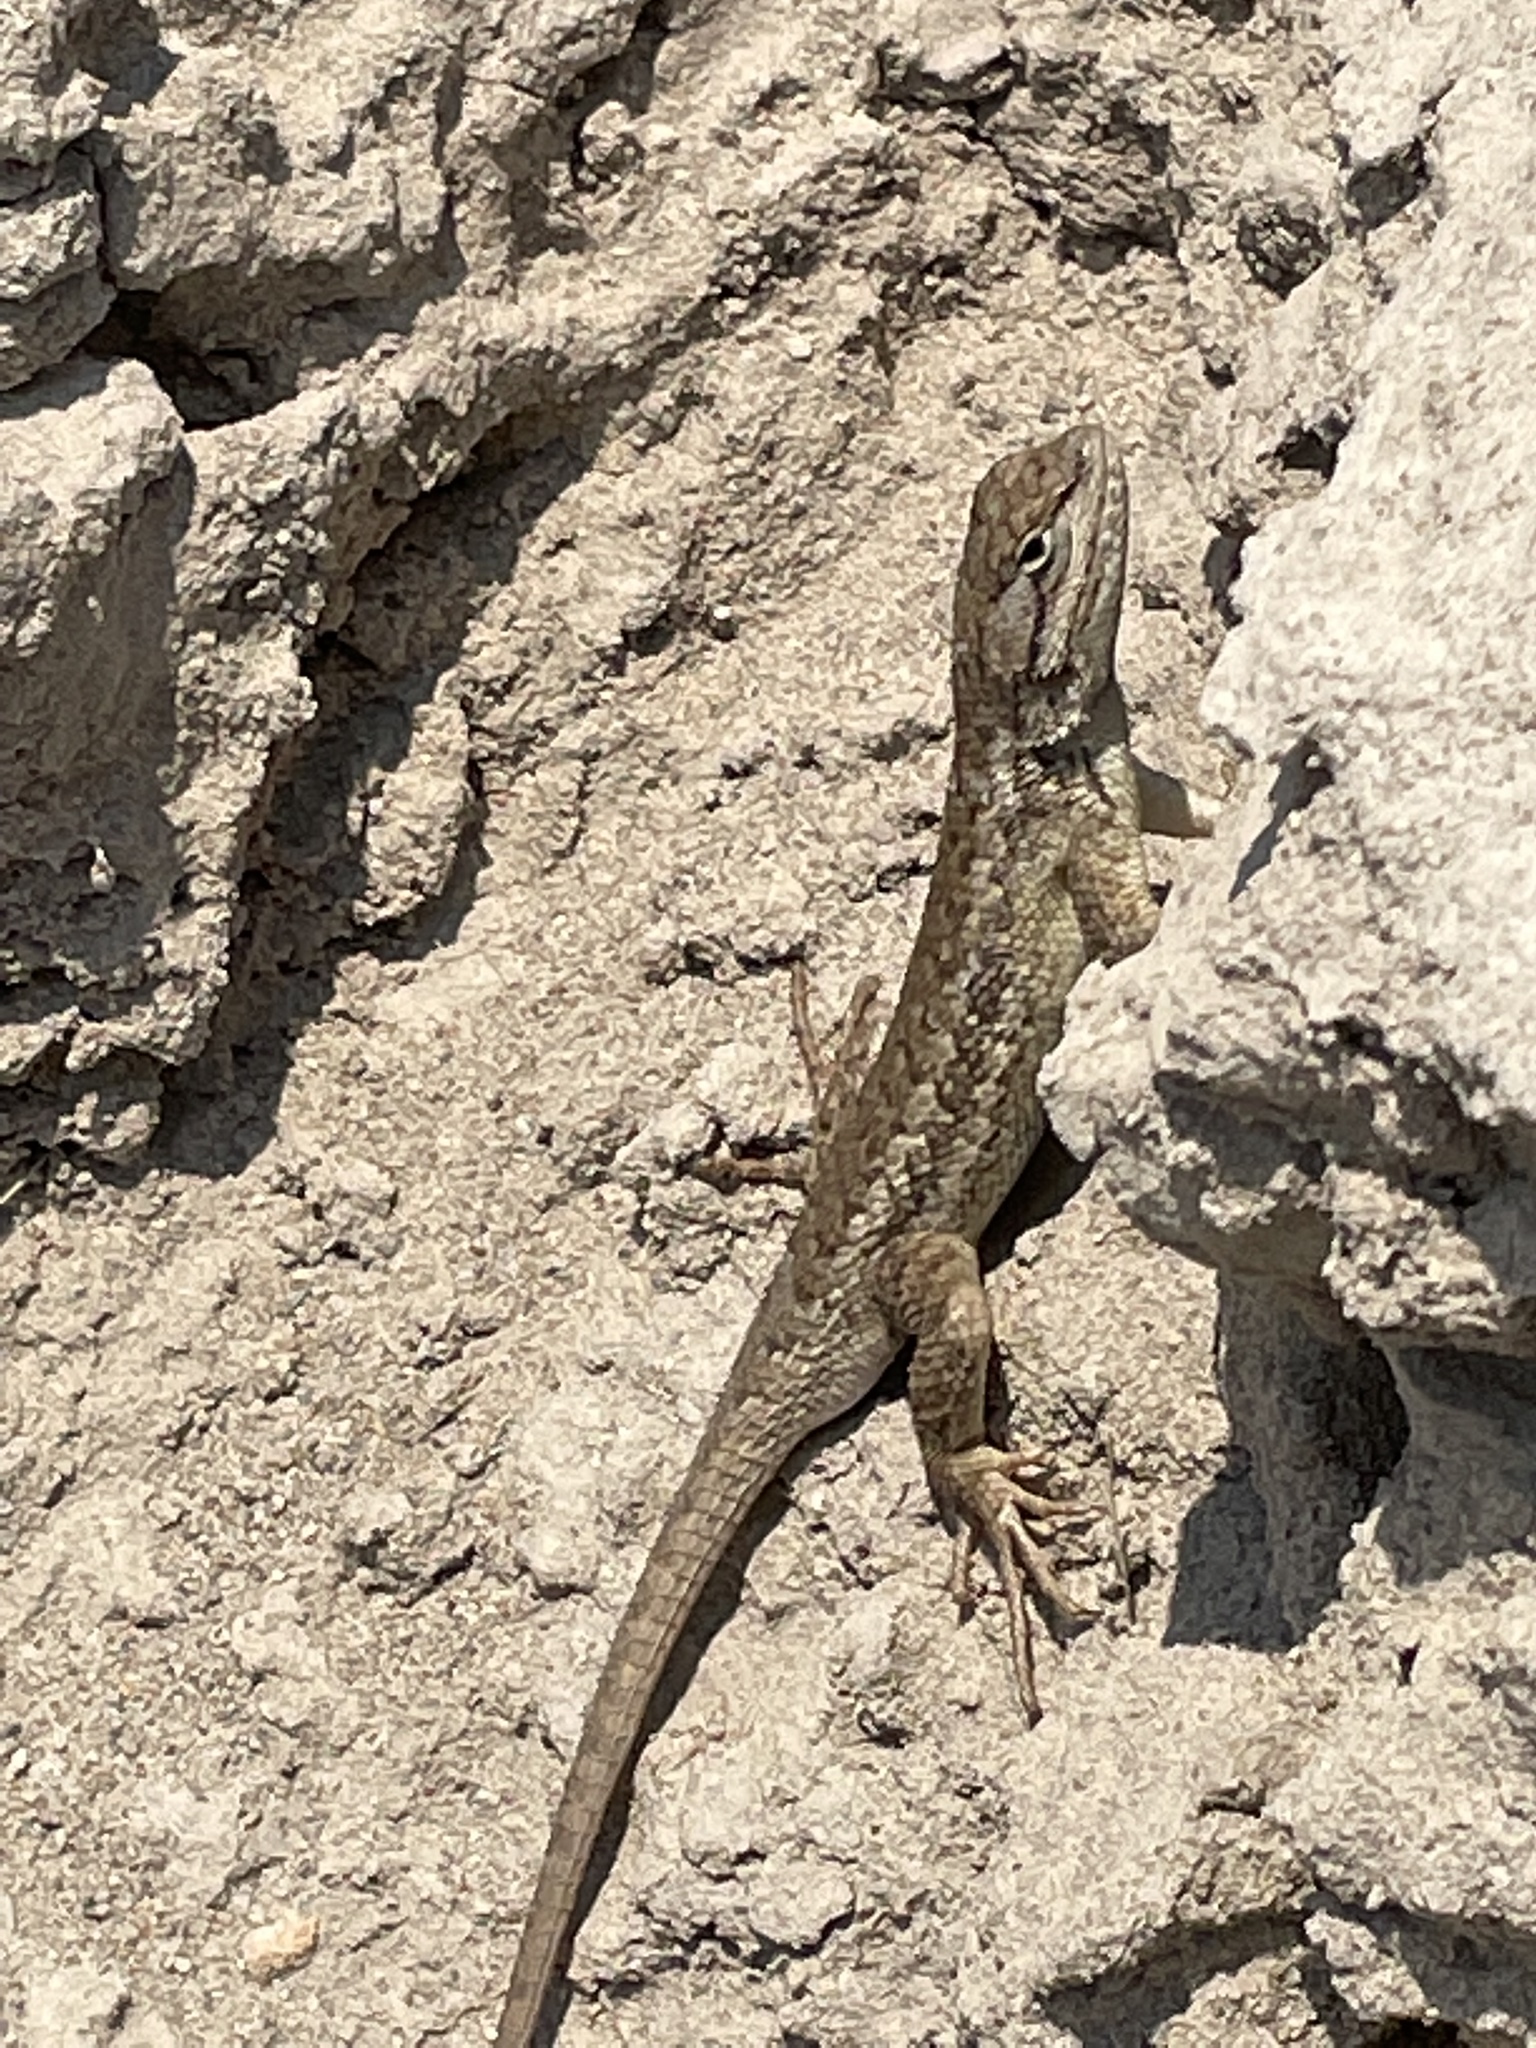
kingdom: Animalia
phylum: Chordata
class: Squamata
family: Phrynosomatidae
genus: Sceloporus
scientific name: Sceloporus tristichus
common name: Plateau fence lizard
